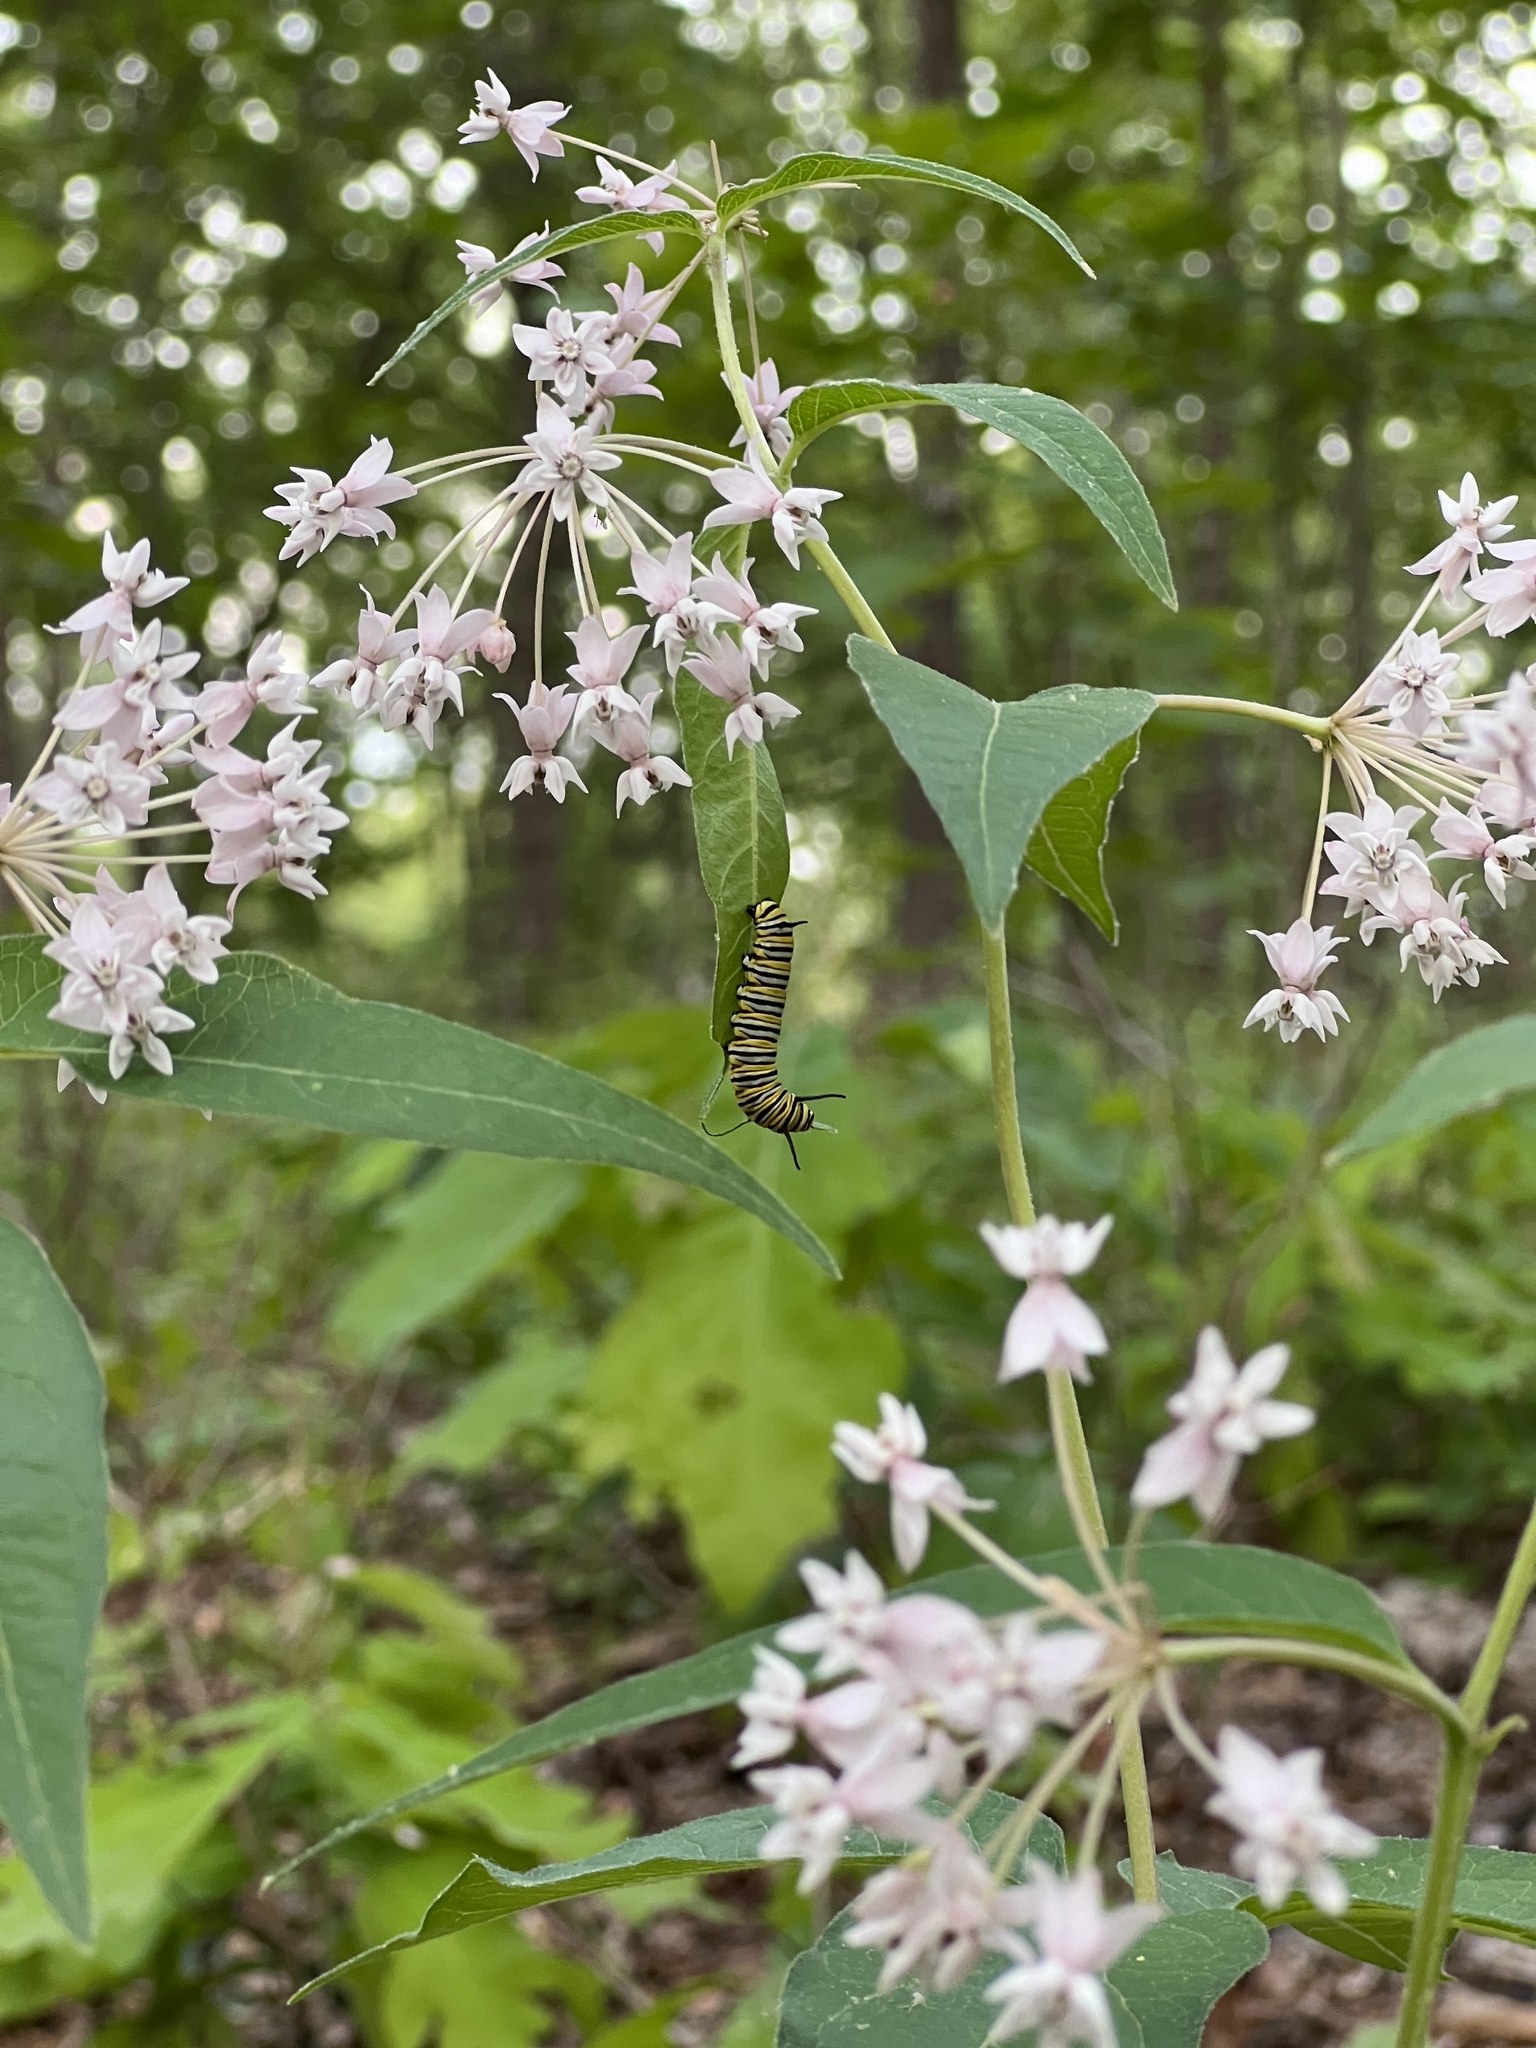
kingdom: Animalia
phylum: Arthropoda
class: Insecta
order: Lepidoptera
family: Nymphalidae
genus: Danaus
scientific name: Danaus plexippus
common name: Monarch
